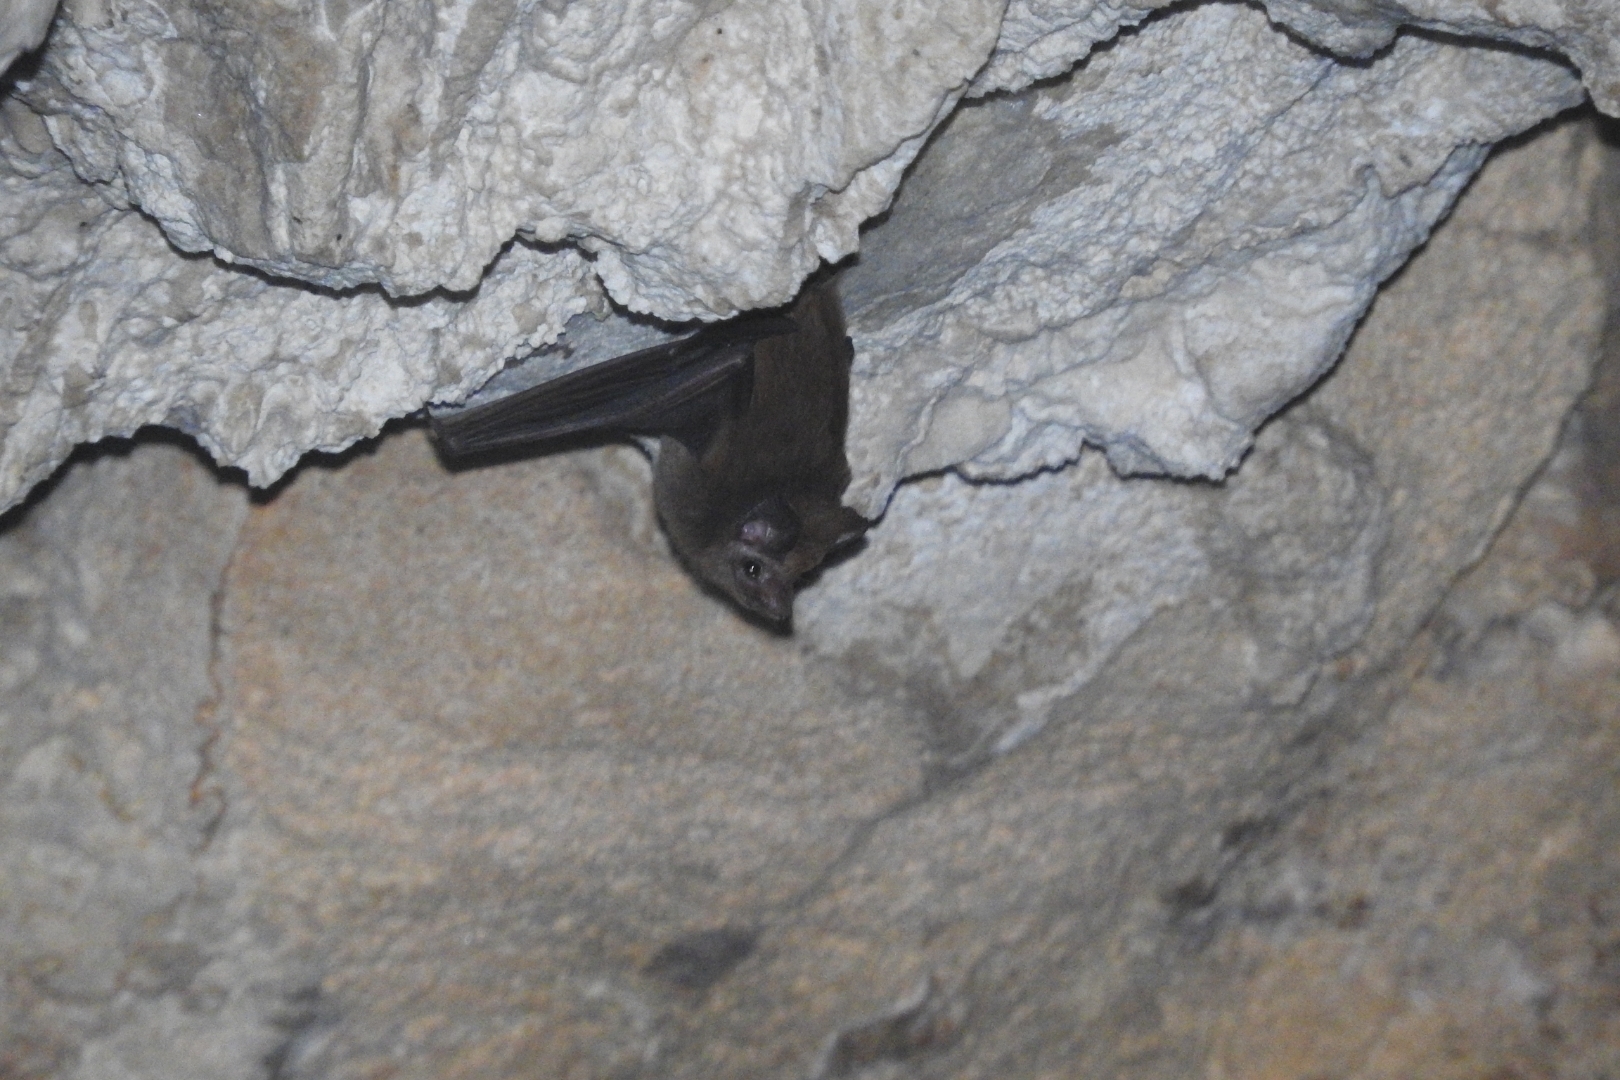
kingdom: Animalia
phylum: Chordata
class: Mammalia
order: Chiroptera
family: Emballonuridae
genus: Peropteryx
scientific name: Peropteryx macrotis
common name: Lesser dog-like bat
